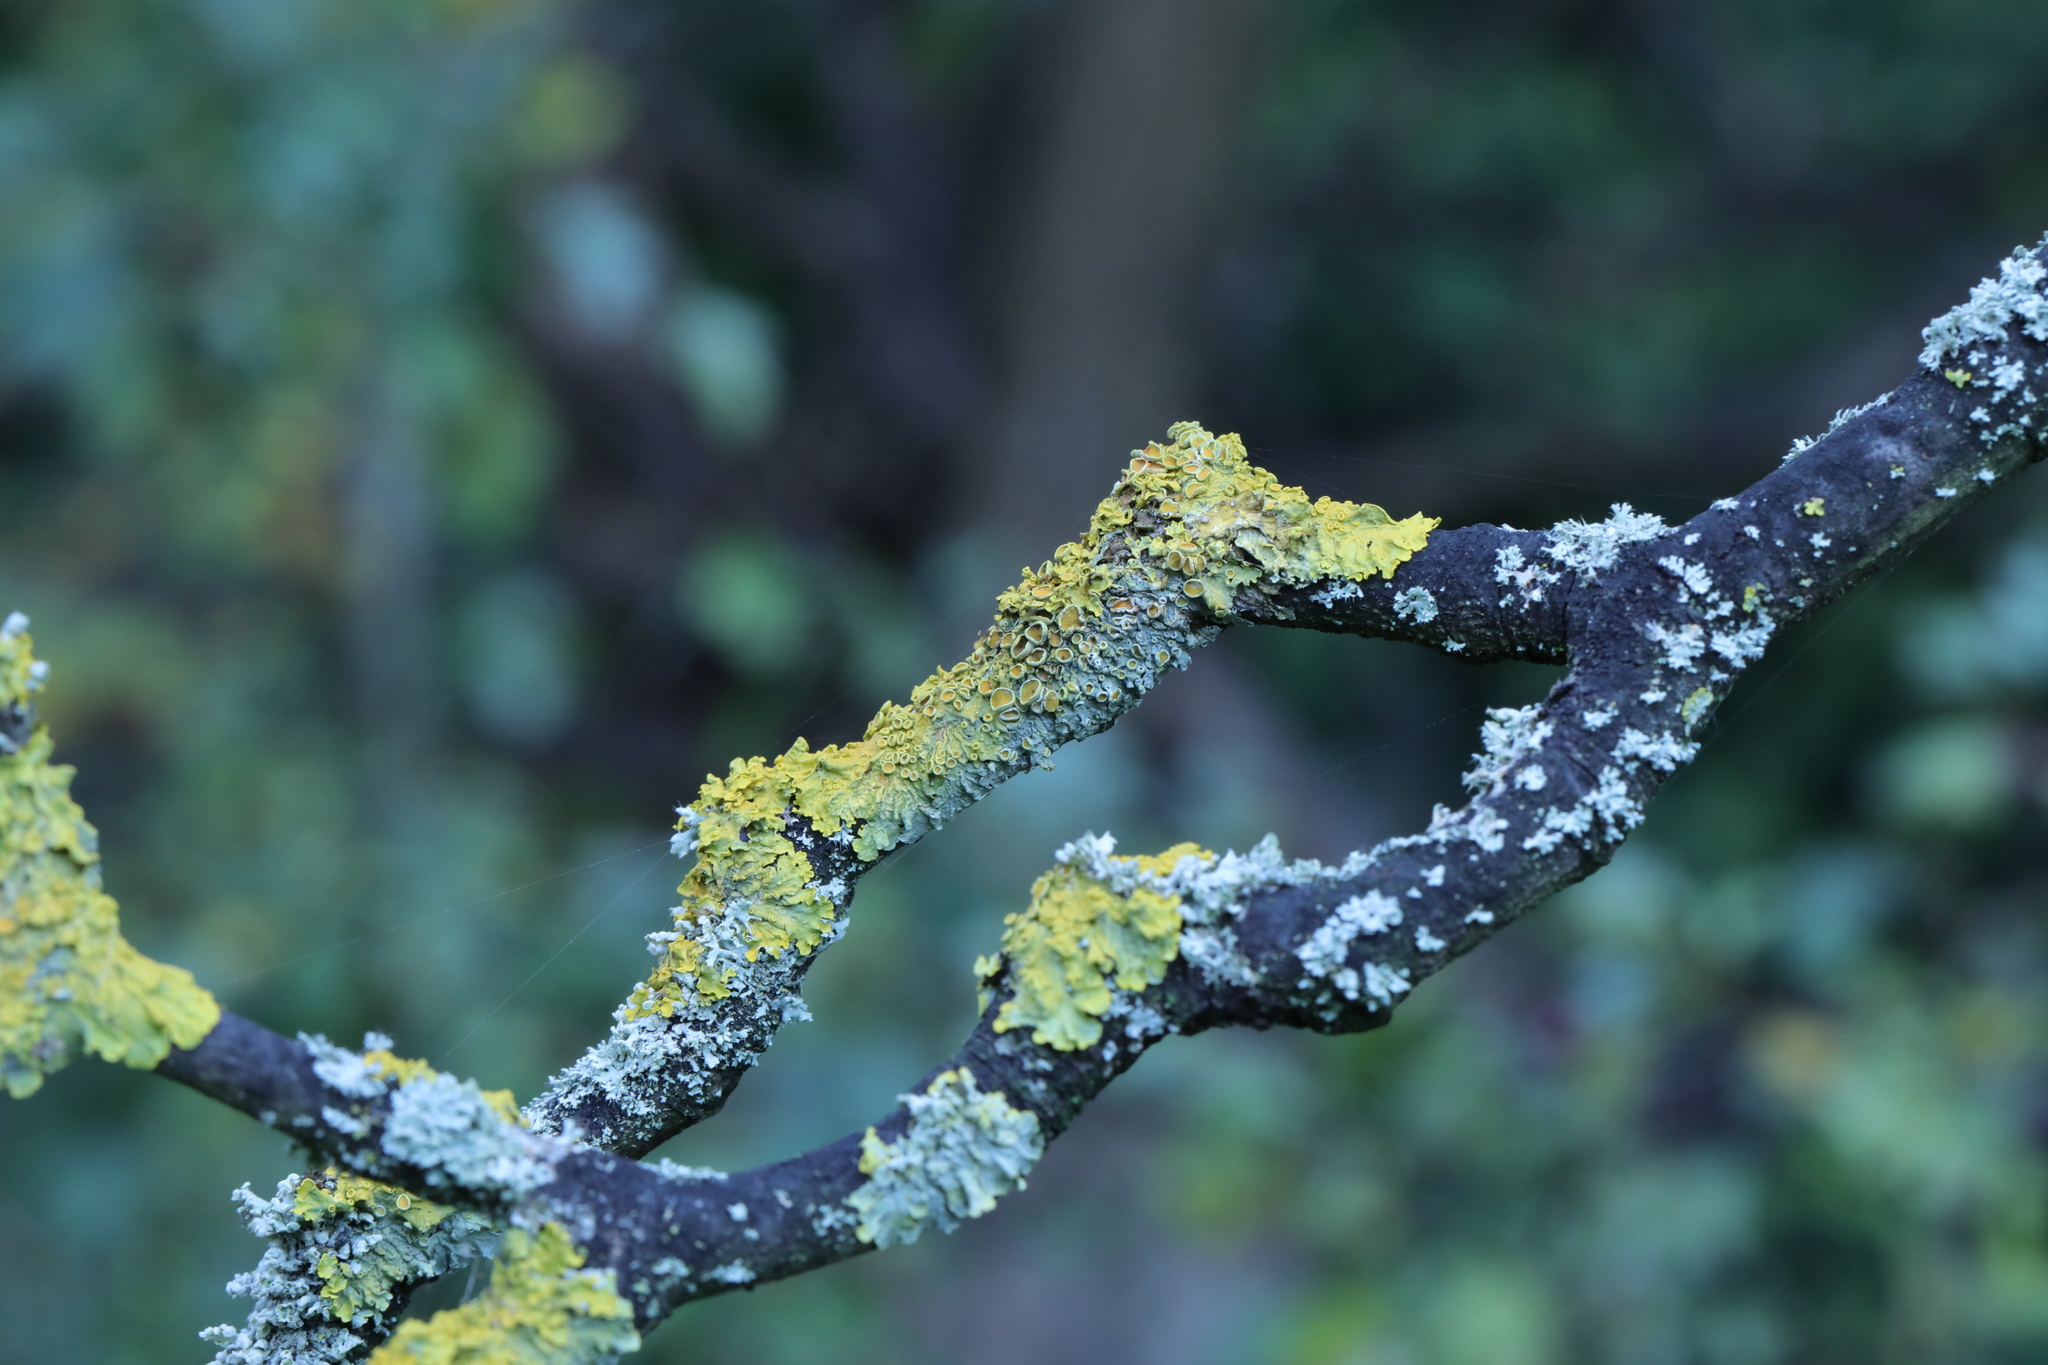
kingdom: Fungi
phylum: Ascomycota
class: Lecanoromycetes
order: Teloschistales
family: Teloschistaceae
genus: Xanthoria
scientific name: Xanthoria parietina
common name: Common orange lichen
